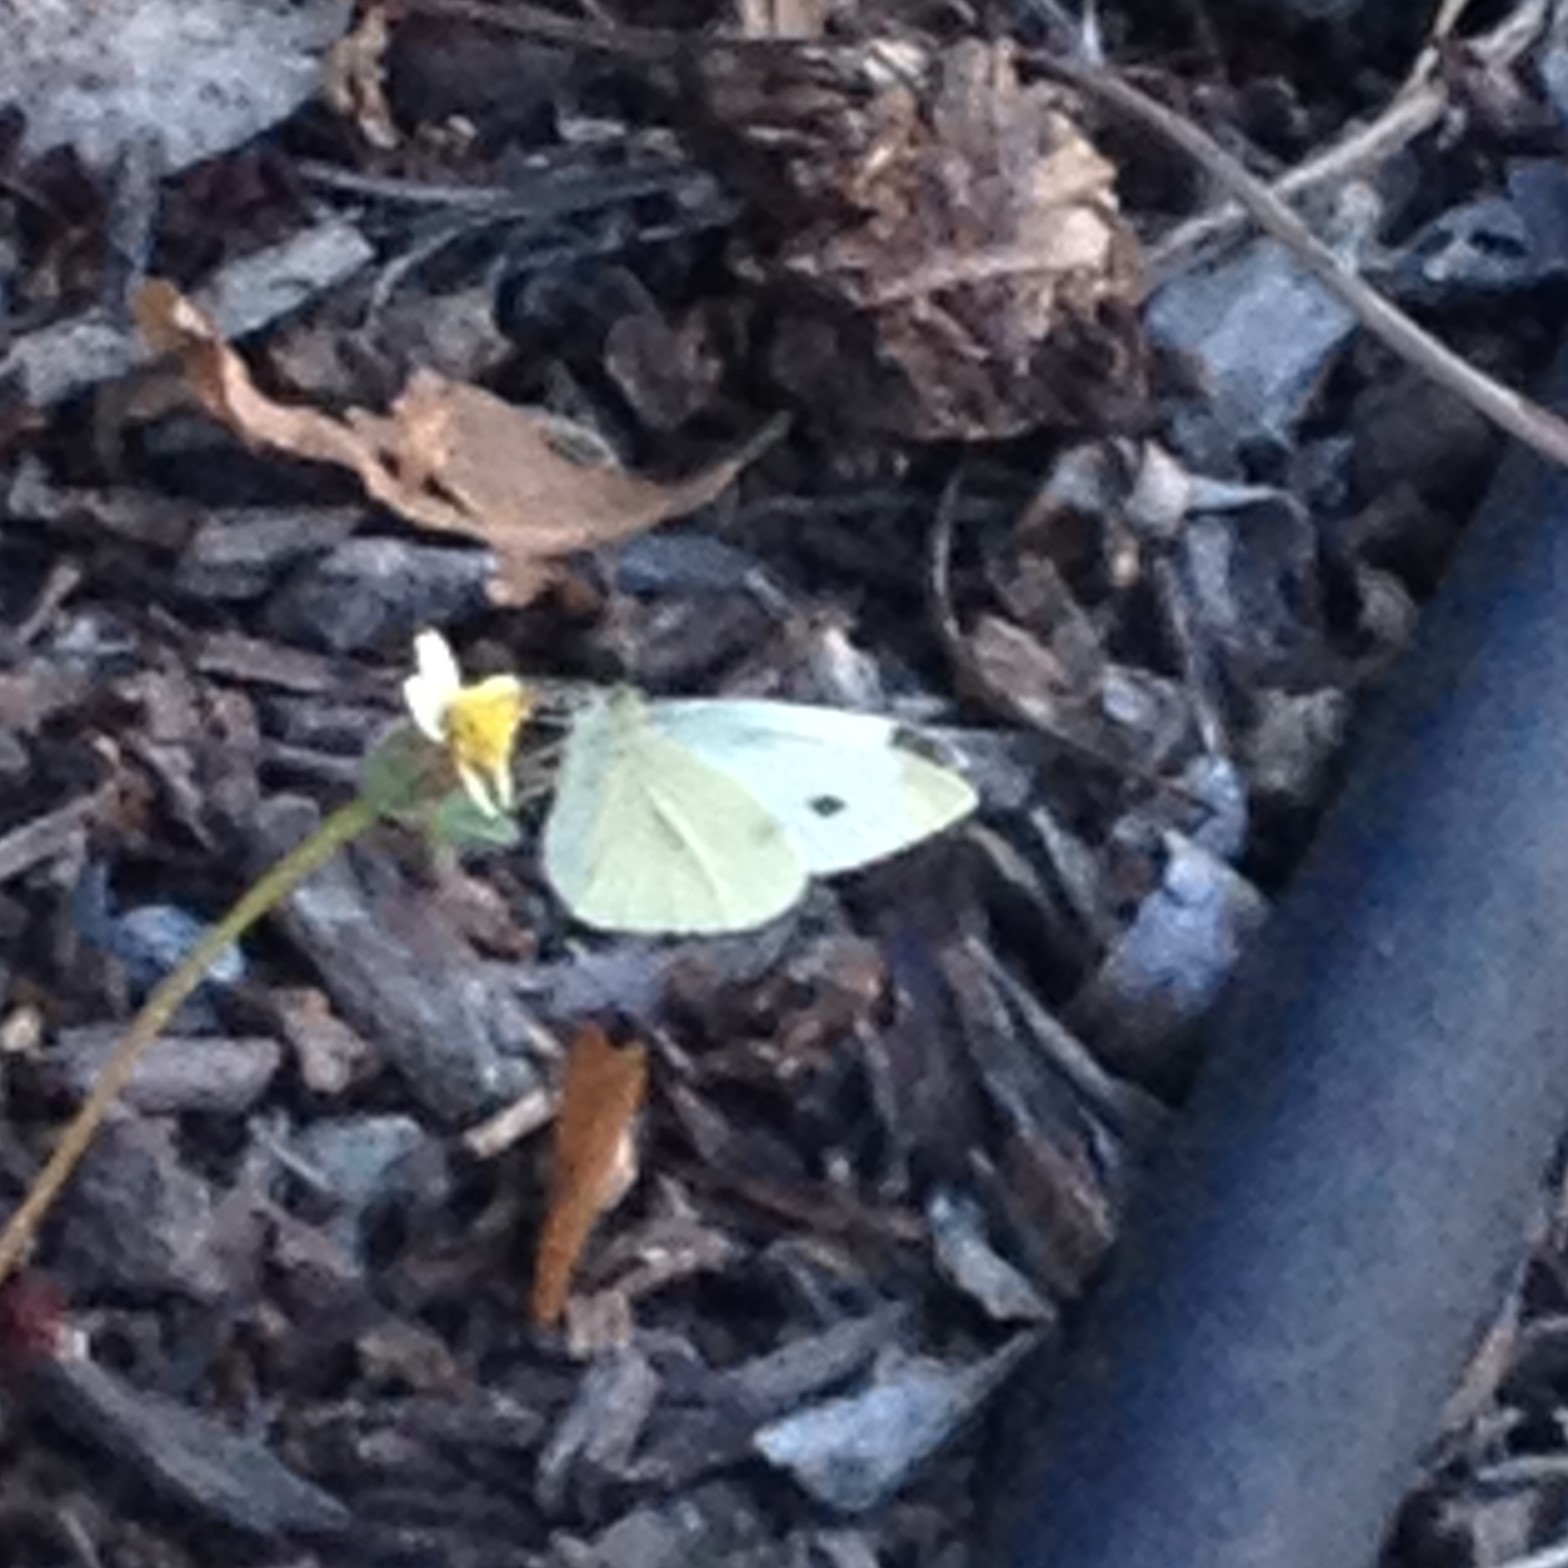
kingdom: Animalia
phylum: Arthropoda
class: Insecta
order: Lepidoptera
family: Pieridae
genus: Pieris
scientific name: Pieris rapae
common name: Small white
